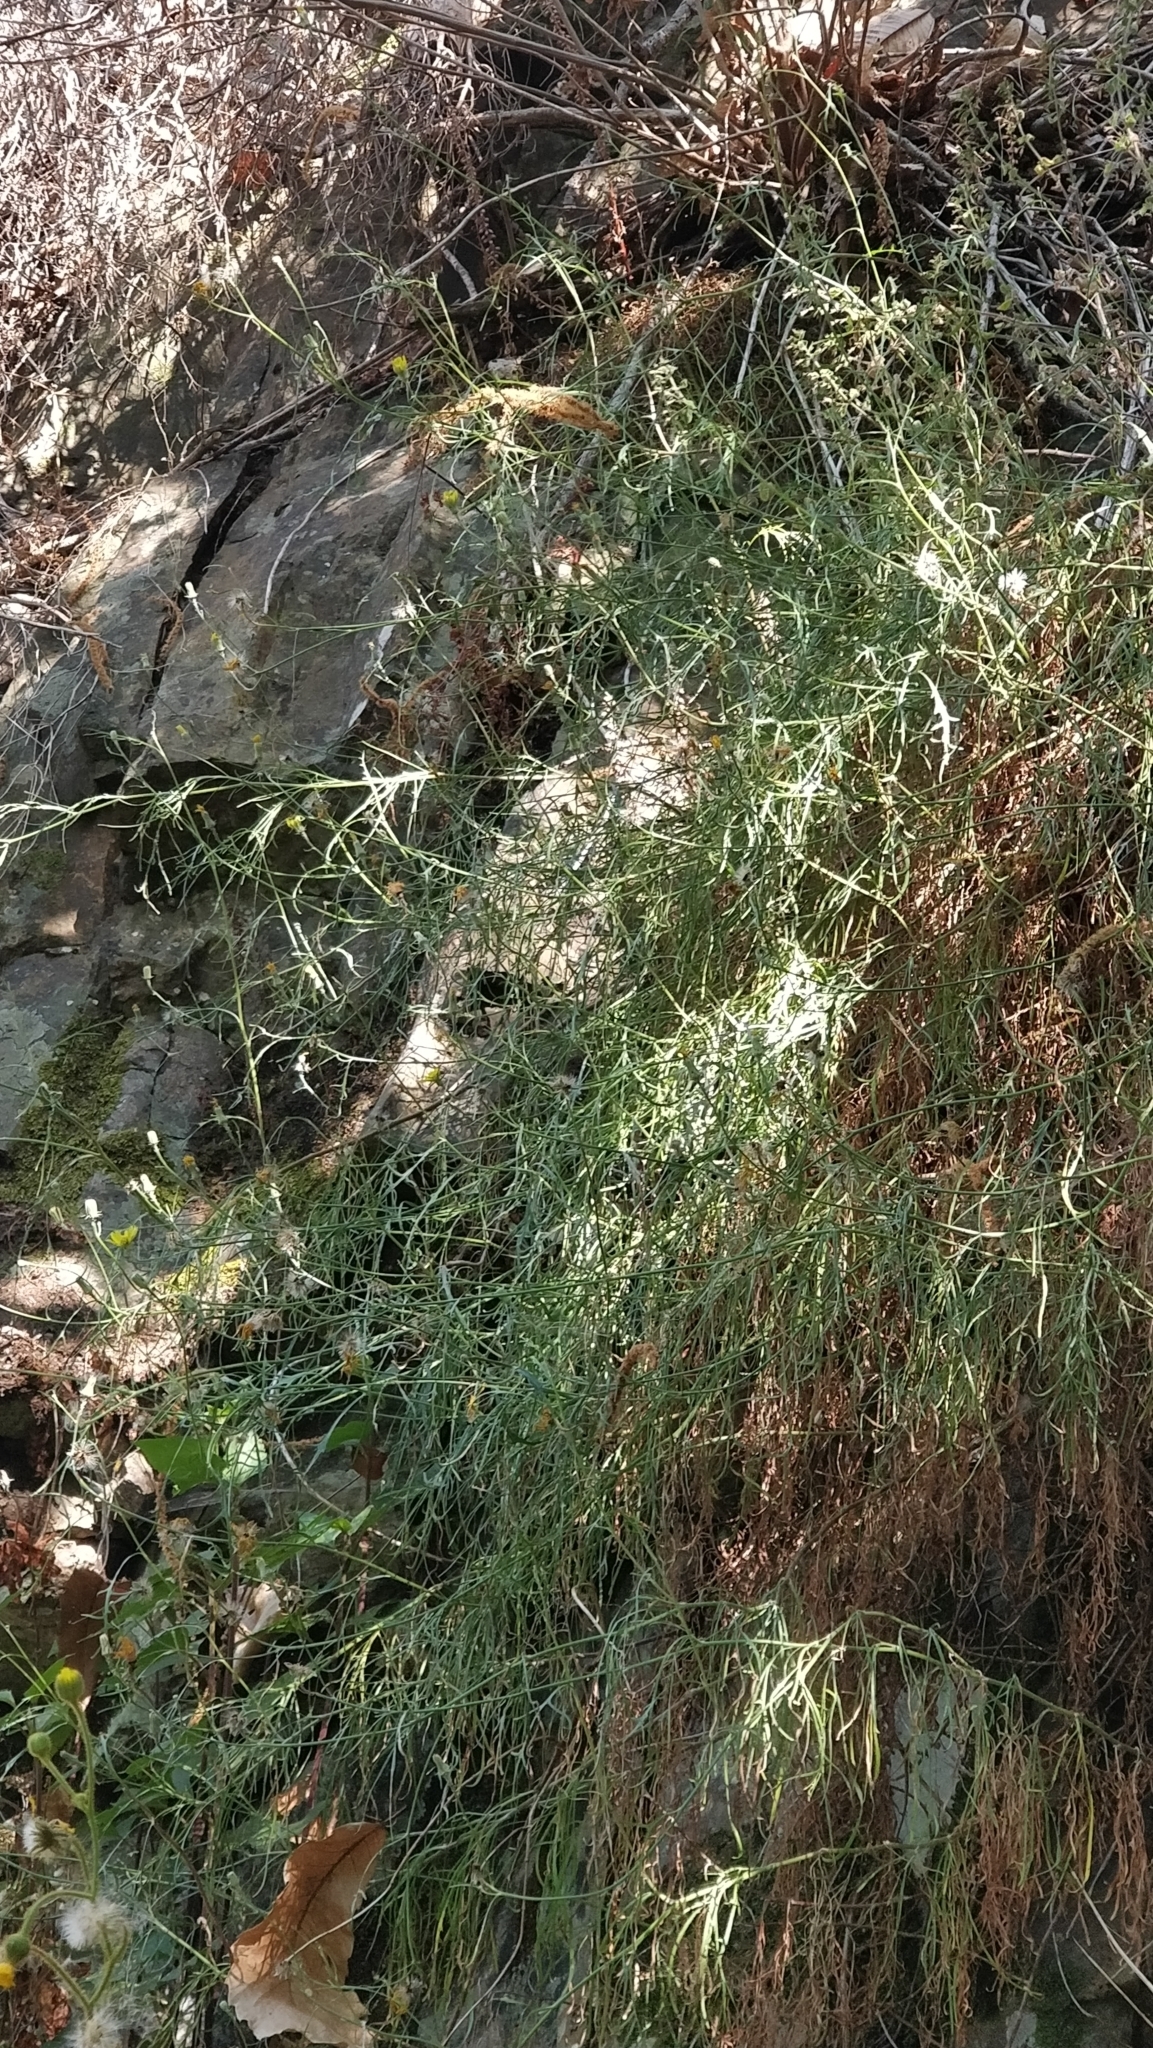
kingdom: Plantae
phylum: Tracheophyta
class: Magnoliopsida
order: Asterales
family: Asteraceae
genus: Tolpis
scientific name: Tolpis succulenta
